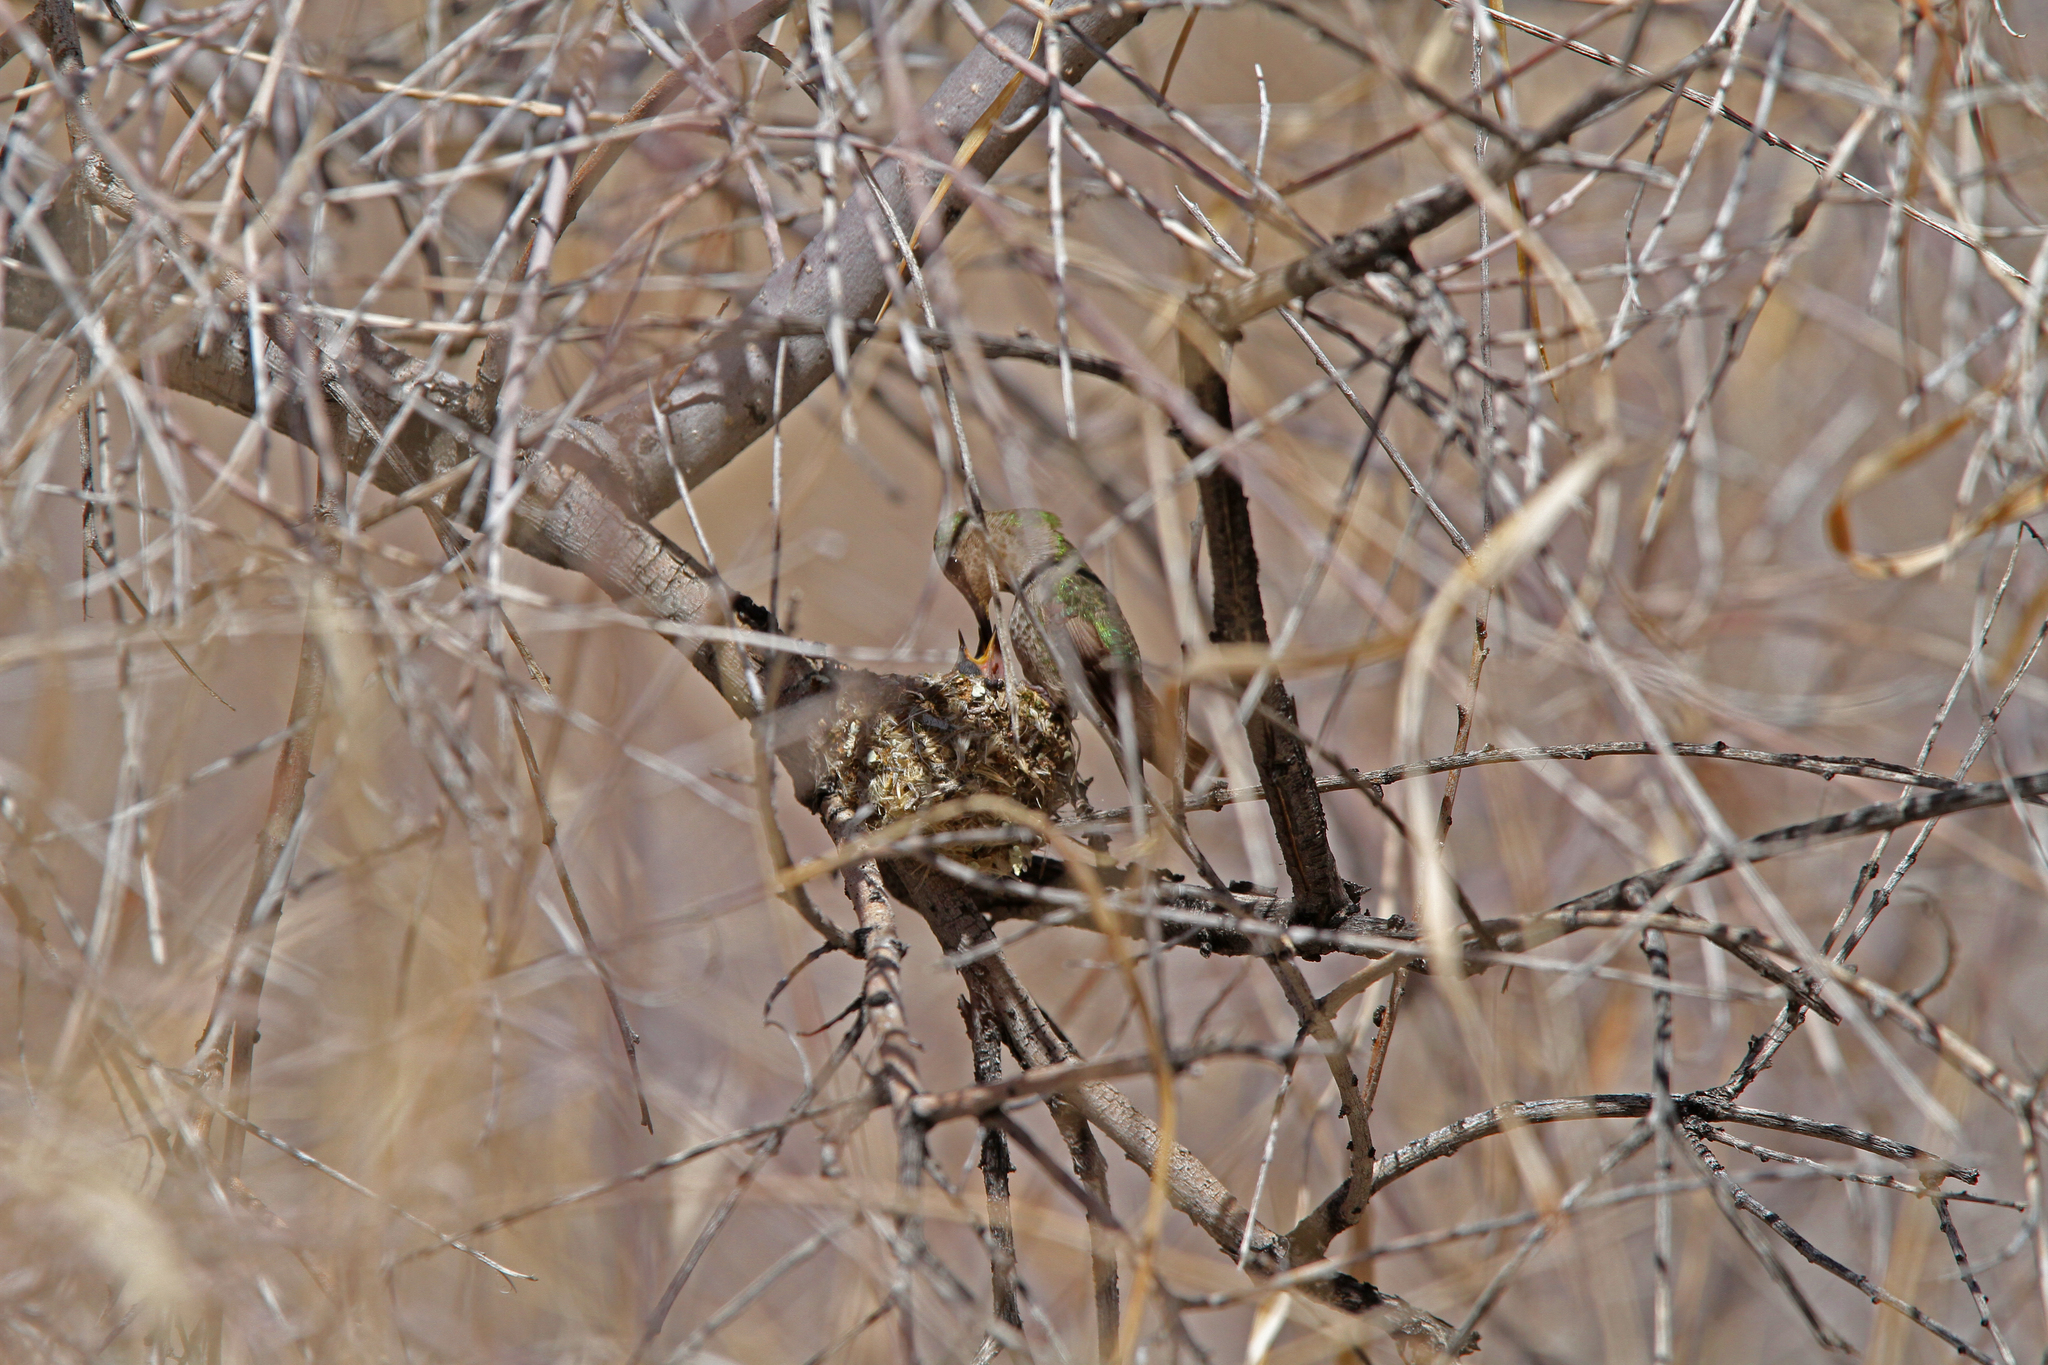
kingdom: Animalia
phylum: Chordata
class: Aves
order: Apodiformes
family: Trochilidae
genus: Calypte
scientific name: Calypte anna
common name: Anna's hummingbird
